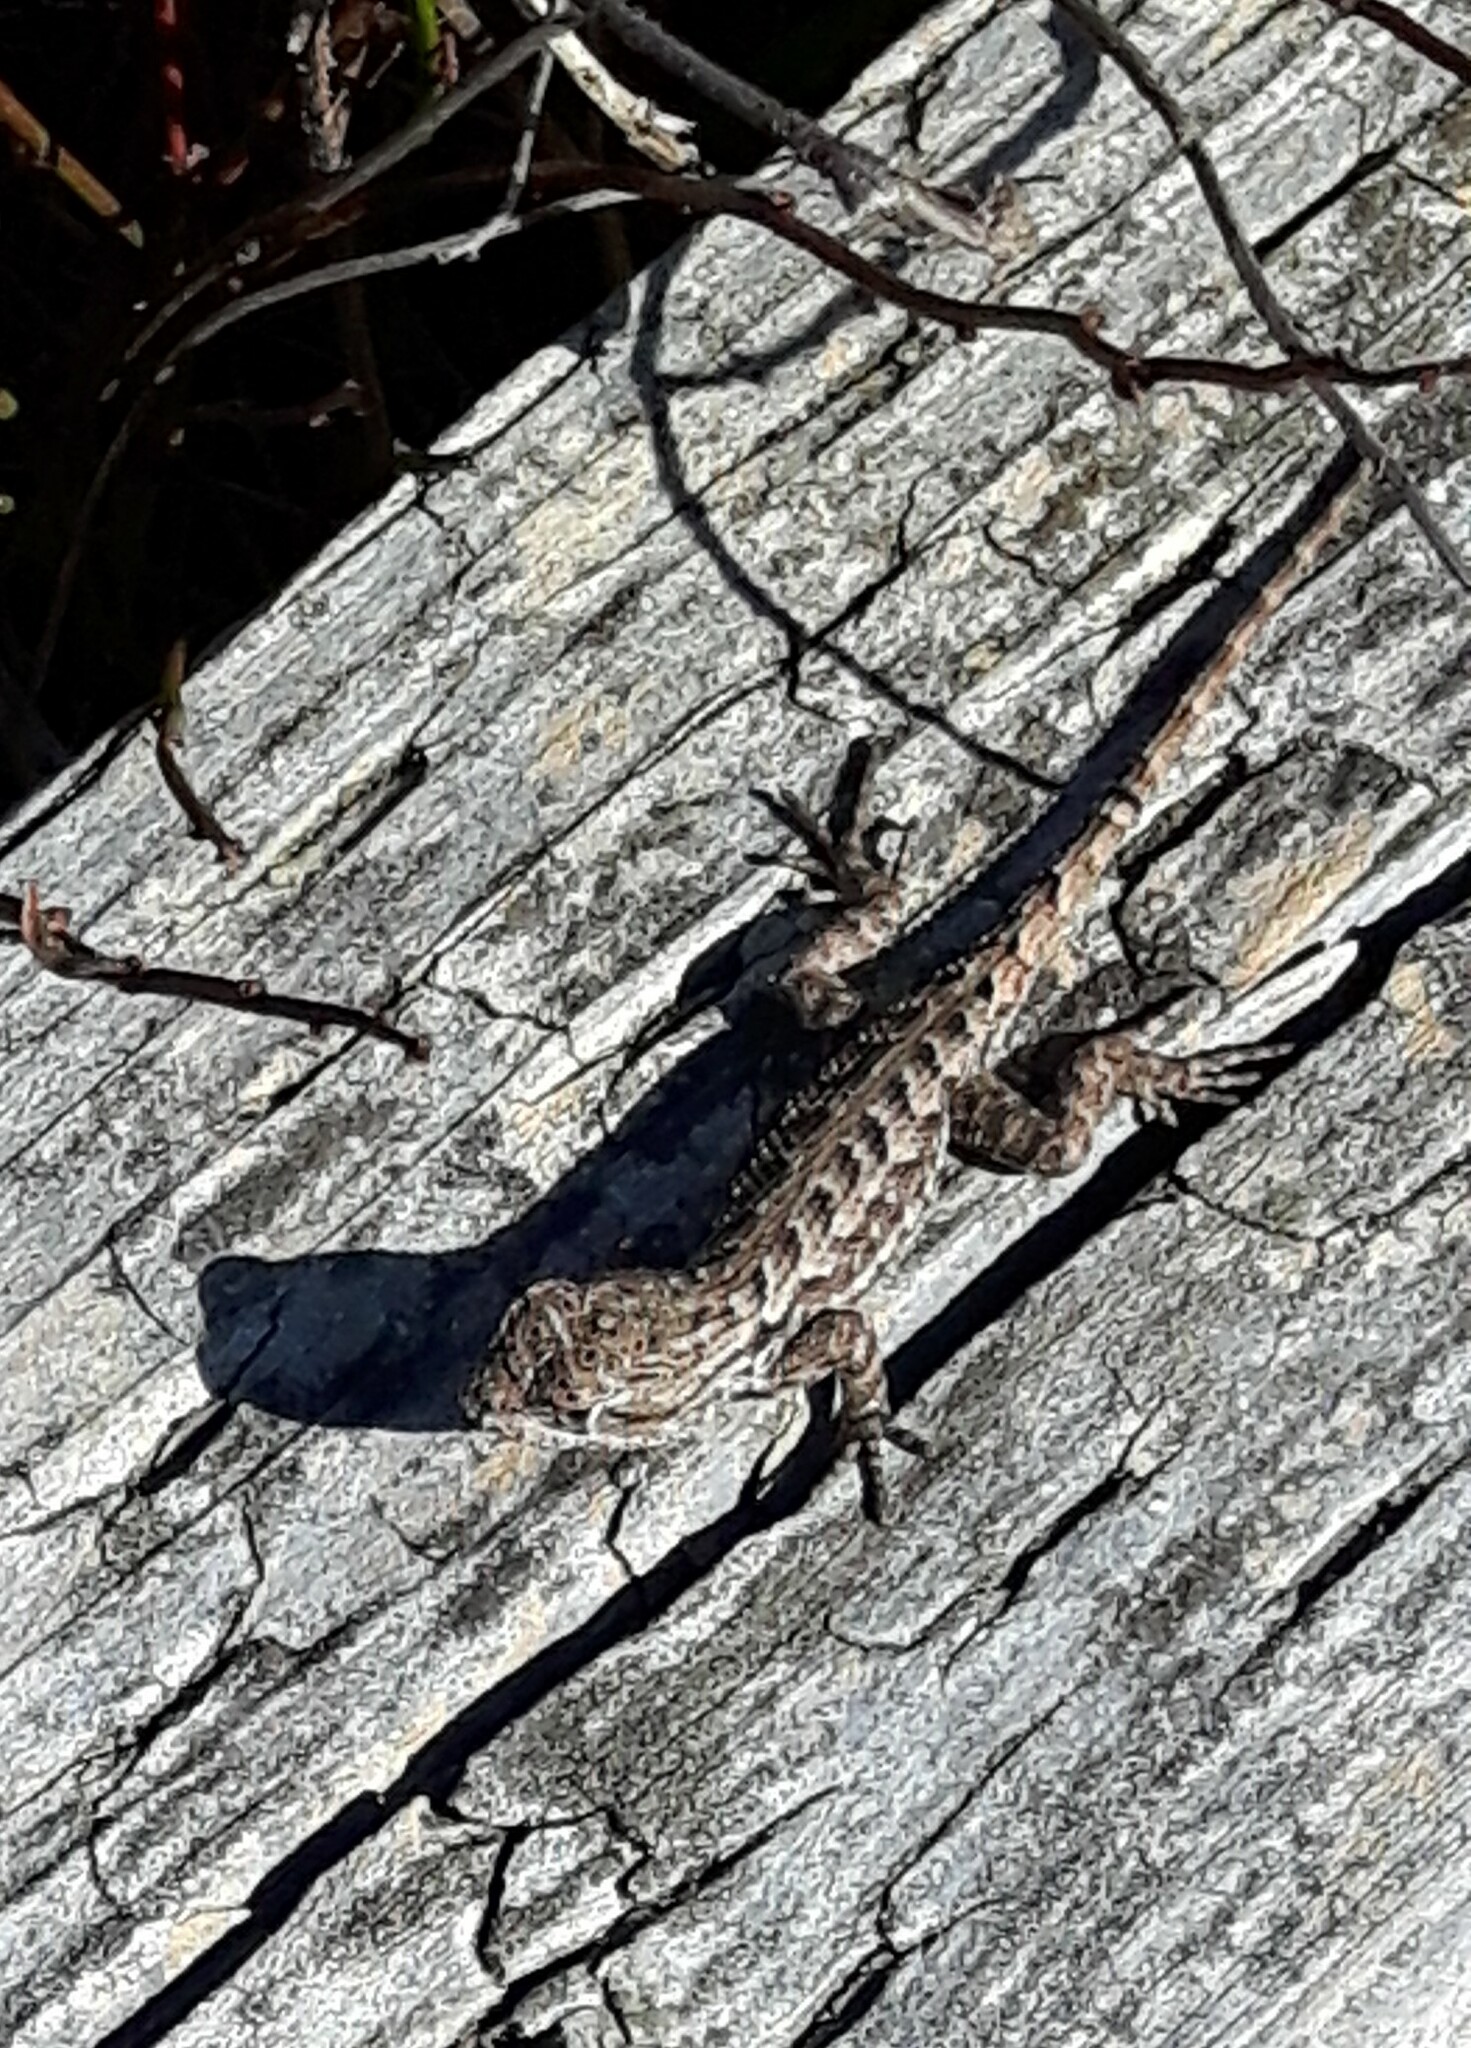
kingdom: Animalia
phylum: Chordata
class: Squamata
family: Phrynosomatidae
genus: Sceloporus
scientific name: Sceloporus occidentalis
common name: Western fence lizard
